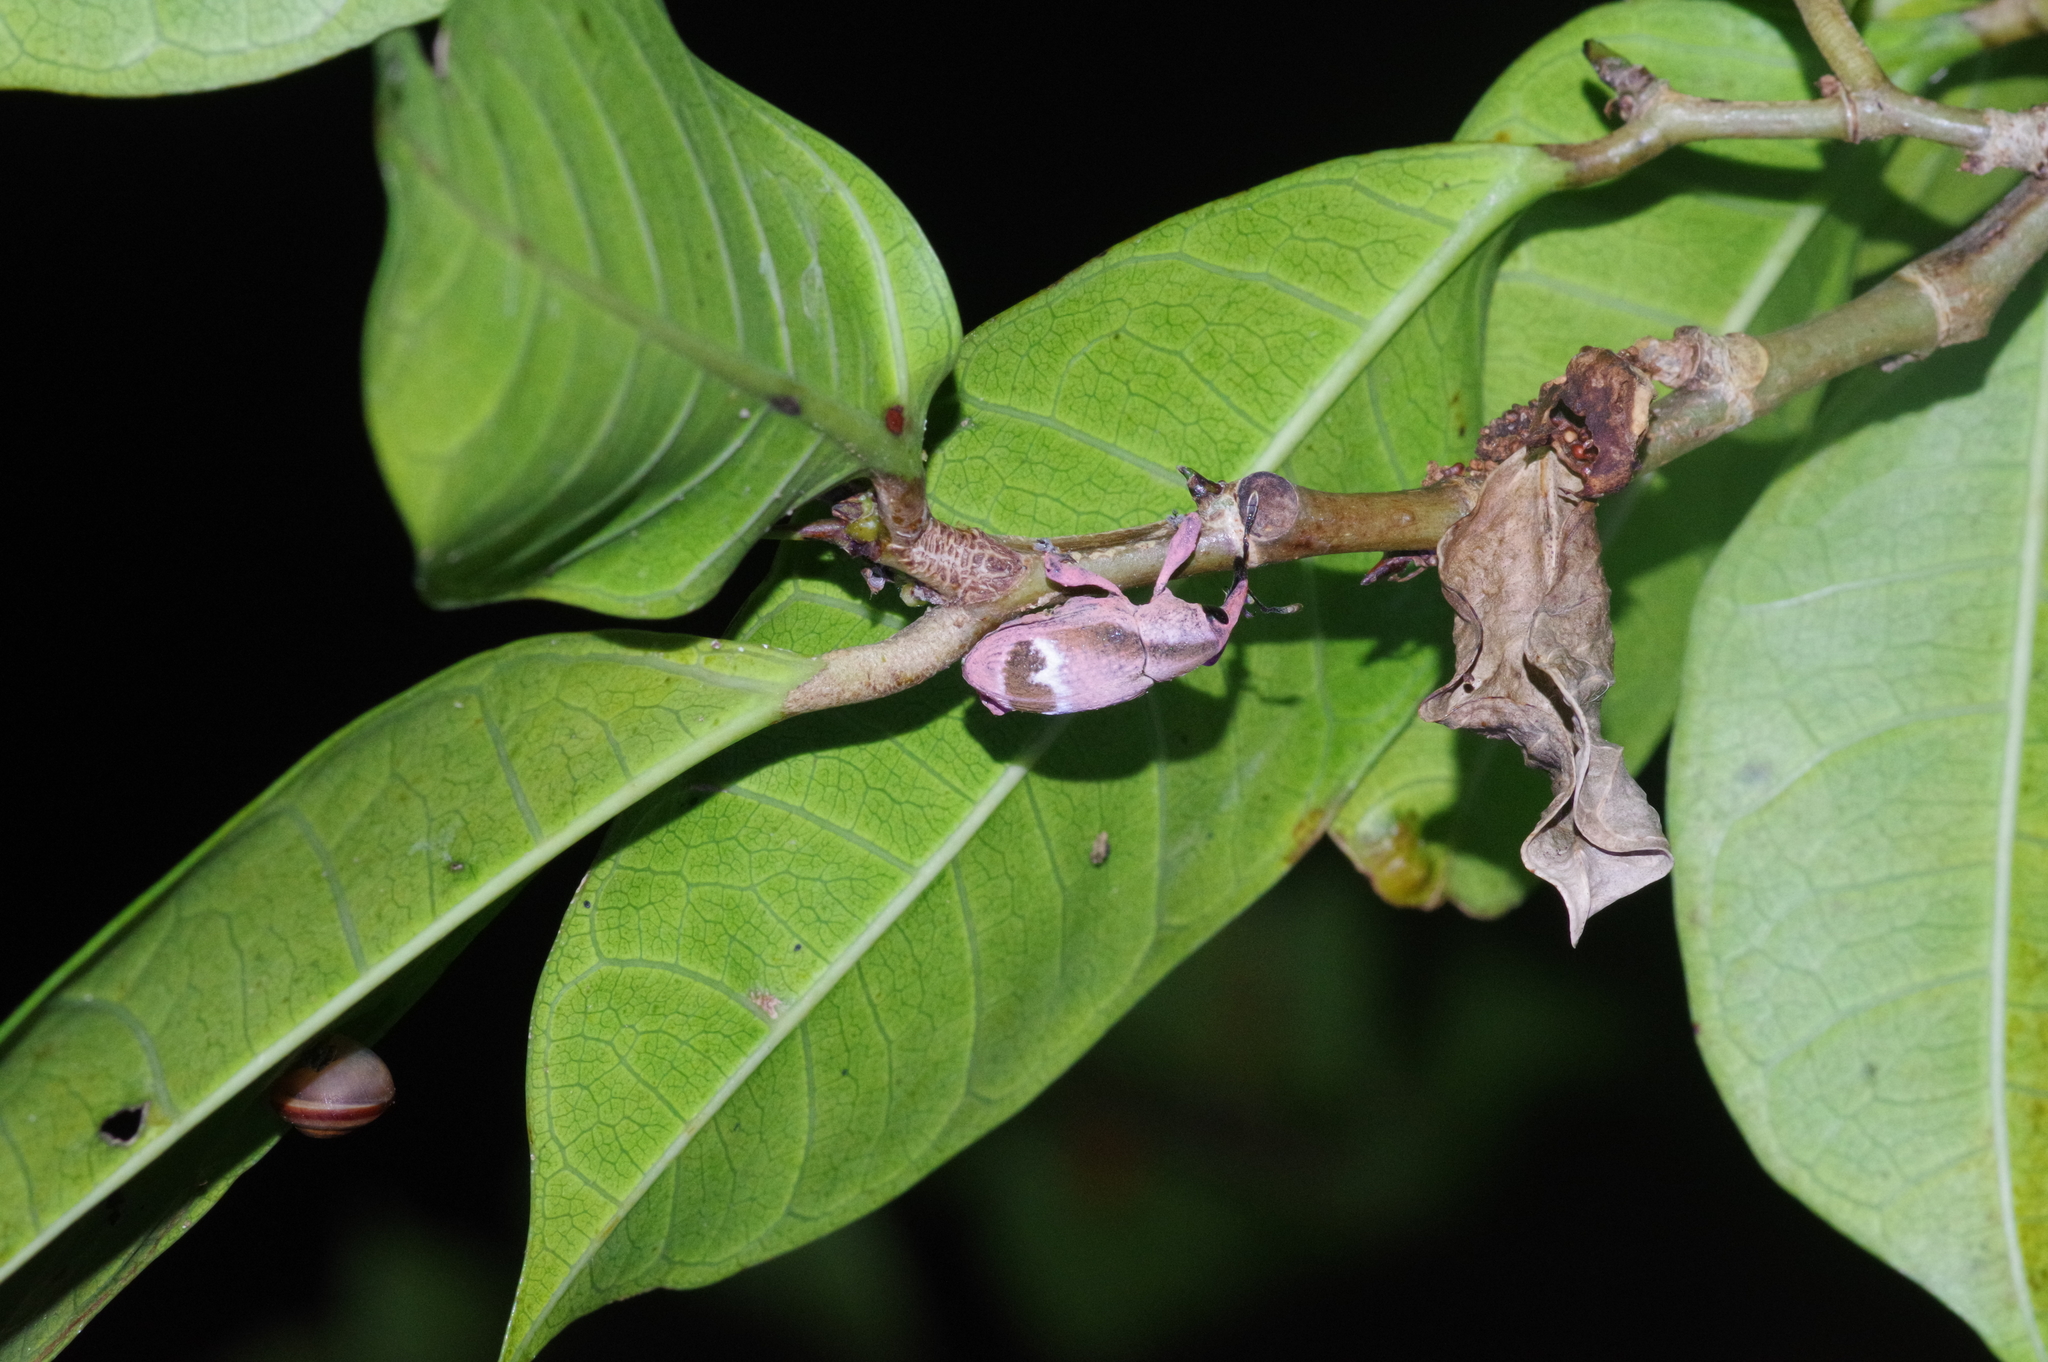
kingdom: Animalia
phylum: Arthropoda
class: Insecta
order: Coleoptera
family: Curculionidae
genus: Aclees
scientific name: Aclees hirayamai
